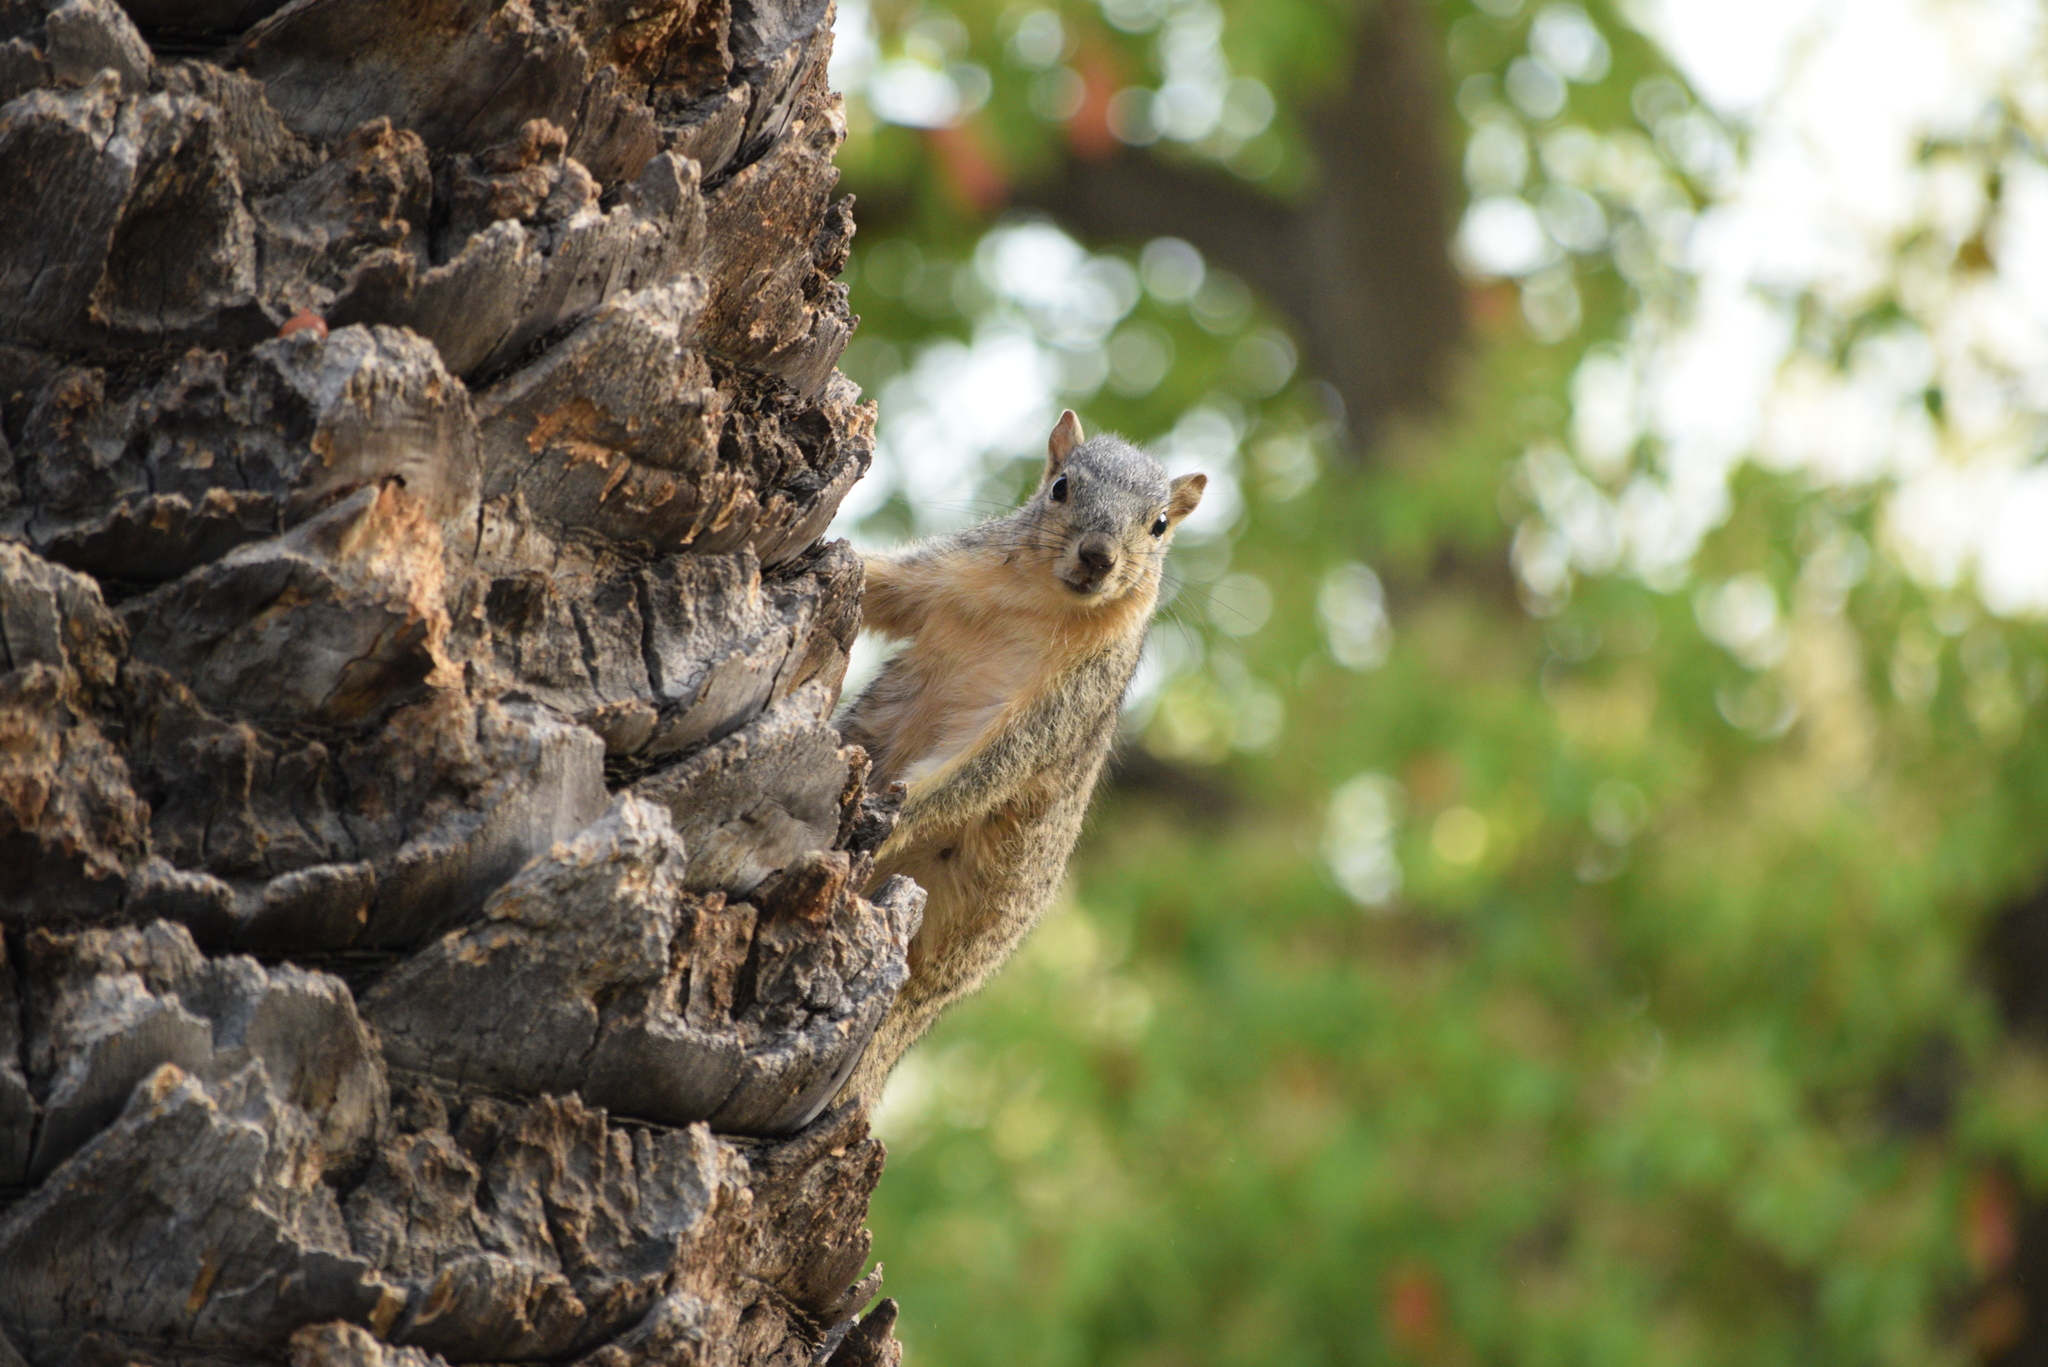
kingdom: Animalia
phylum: Chordata
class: Mammalia
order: Rodentia
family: Sciuridae
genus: Sciurus
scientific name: Sciurus niger
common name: Fox squirrel
